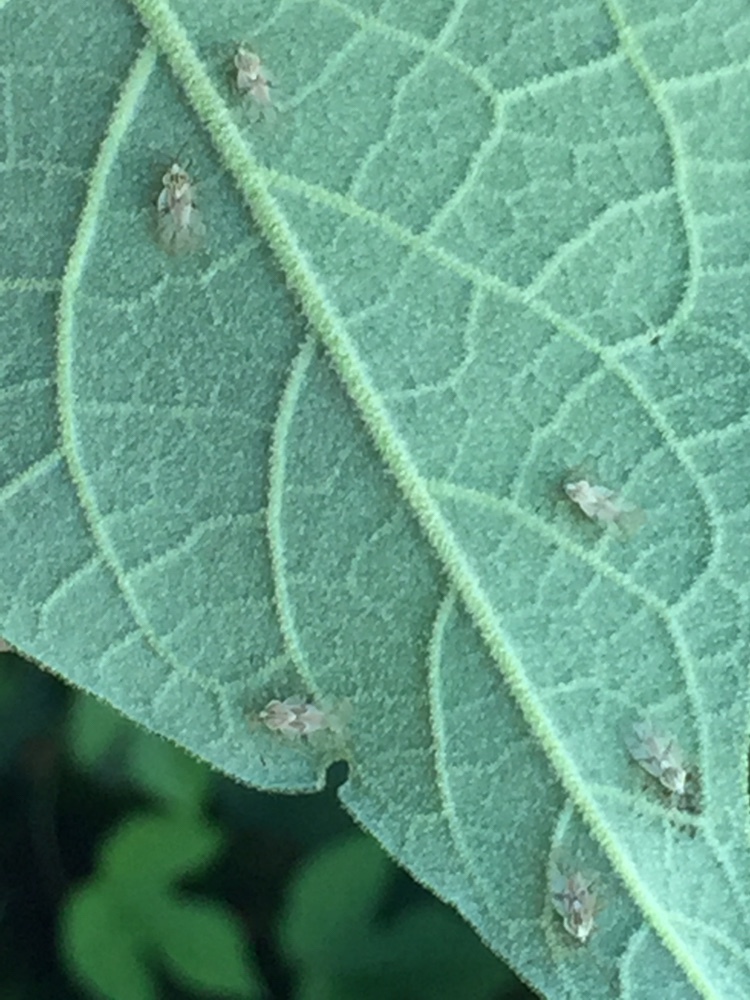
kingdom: Animalia
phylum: Arthropoda
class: Insecta
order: Hemiptera
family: Tingidae
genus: Gargaphia
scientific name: Gargaphia decoris
